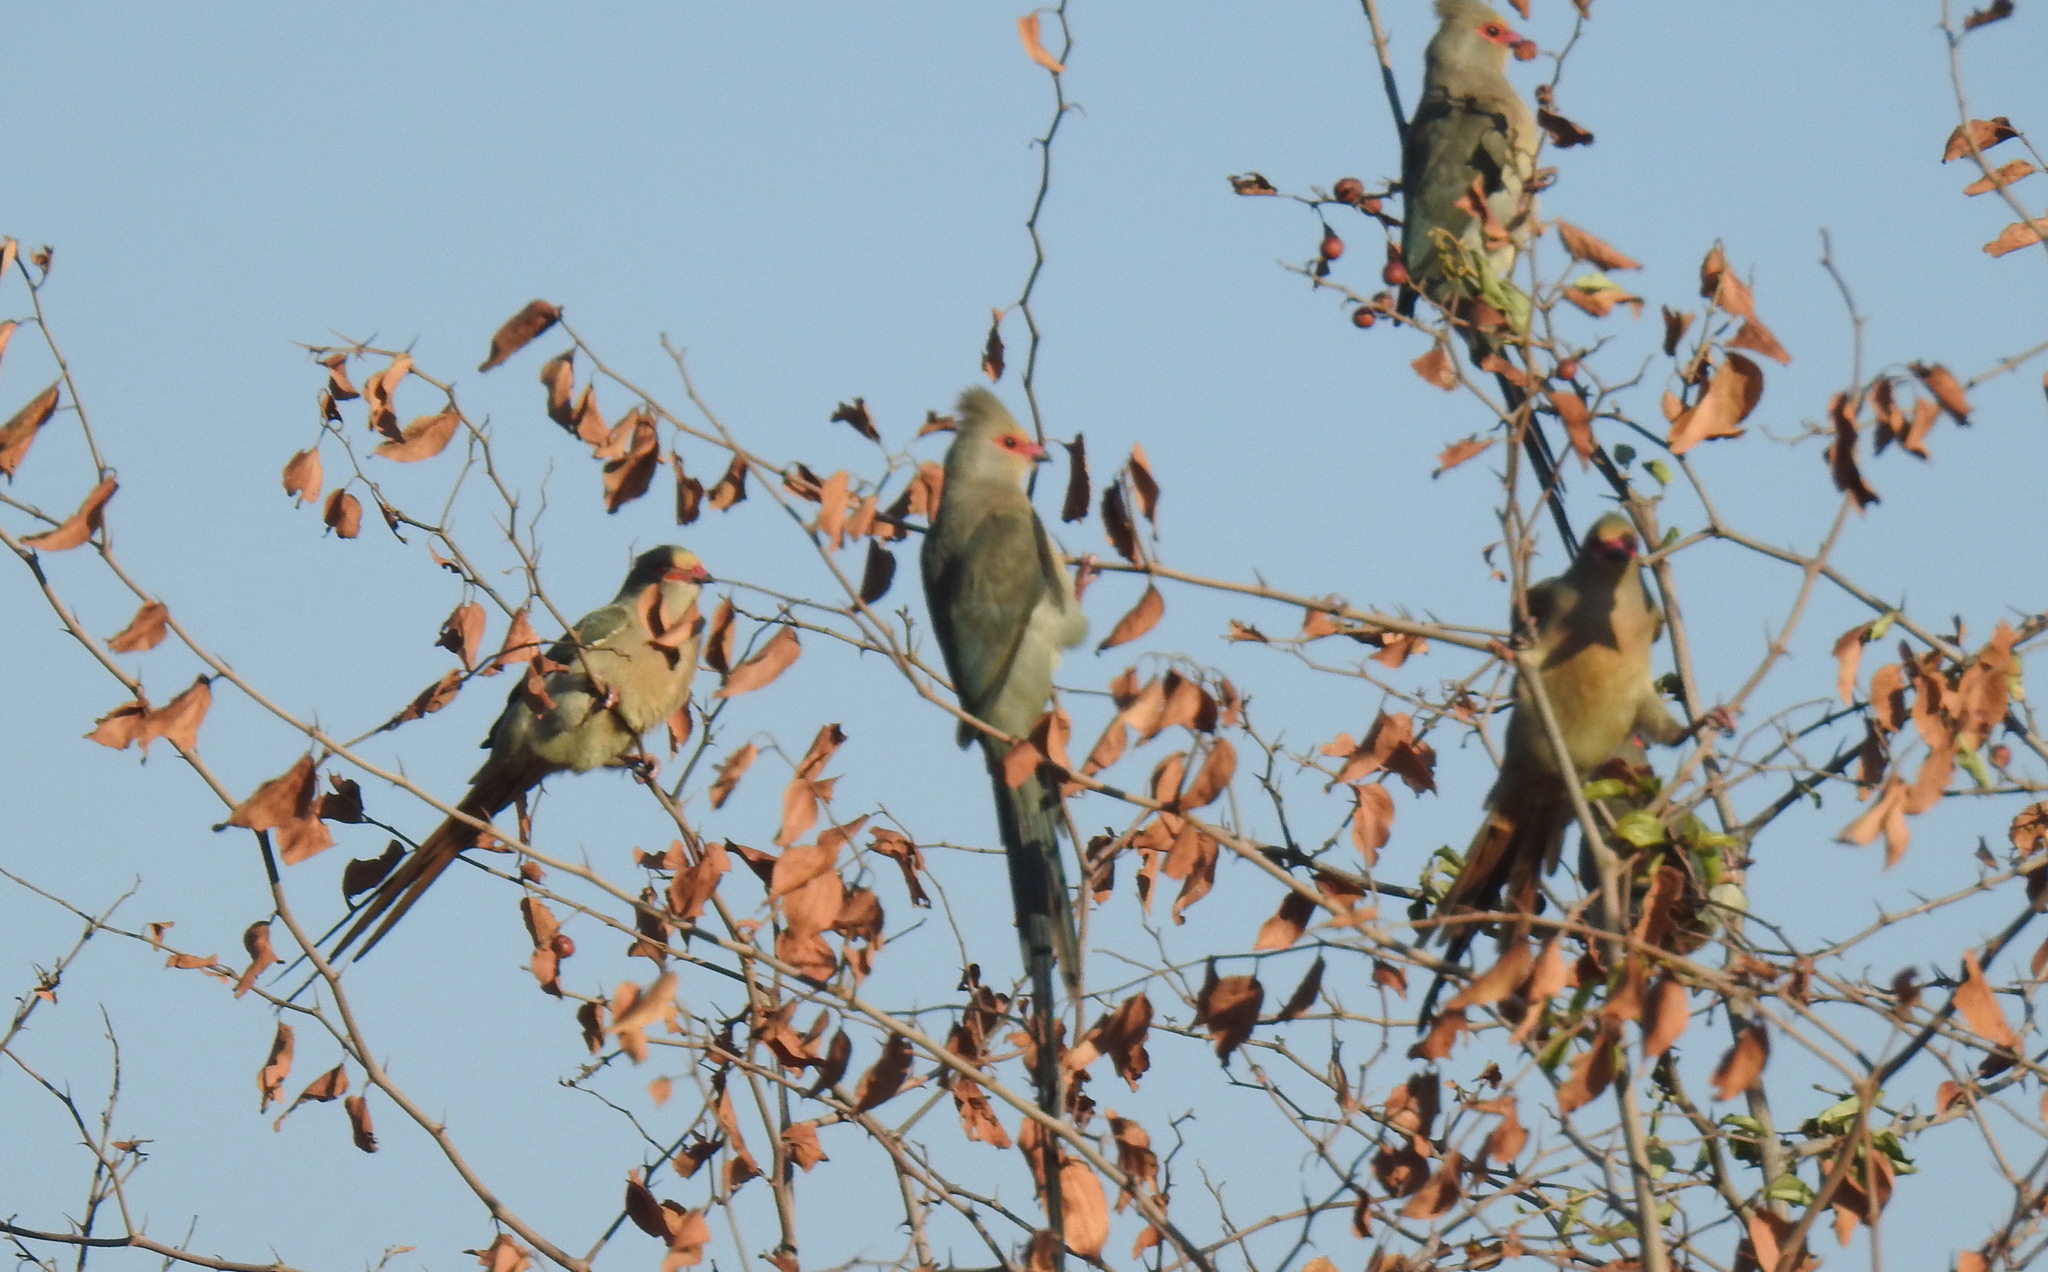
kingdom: Animalia
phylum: Chordata
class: Aves
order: Coliiformes
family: Coliidae
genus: Urocolius
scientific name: Urocolius indicus
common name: Red-faced mousebird
